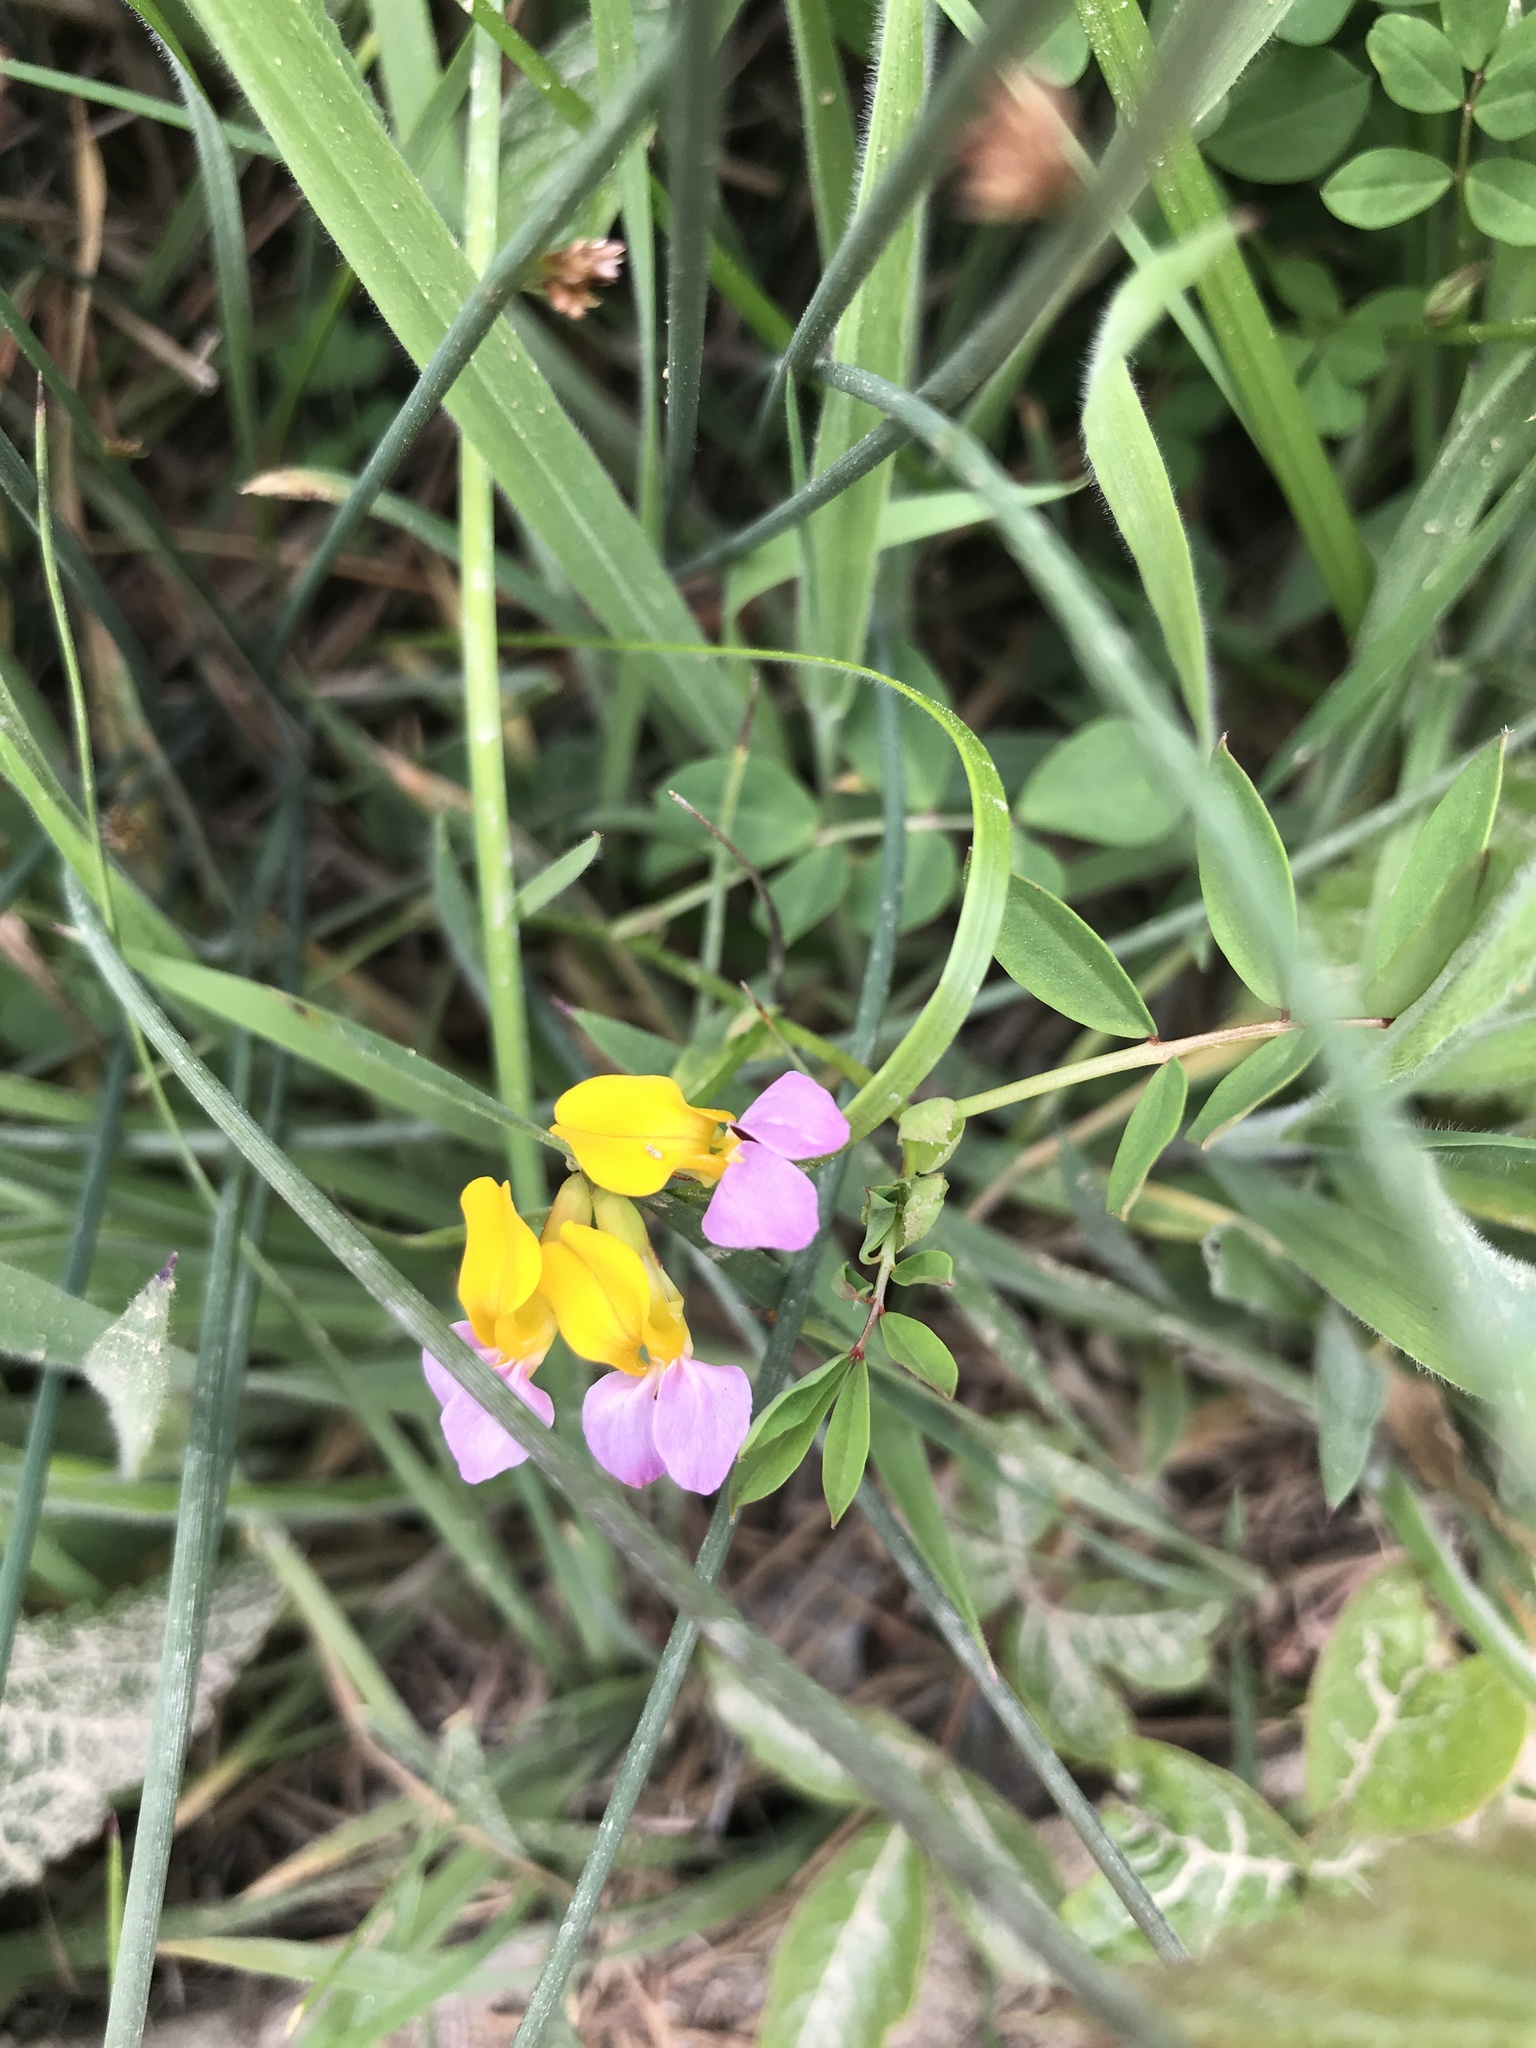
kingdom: Plantae
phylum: Tracheophyta
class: Magnoliopsida
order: Fabales
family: Fabaceae
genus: Hosackia
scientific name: Hosackia gracilis
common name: Seaside bird's-foot lotus
